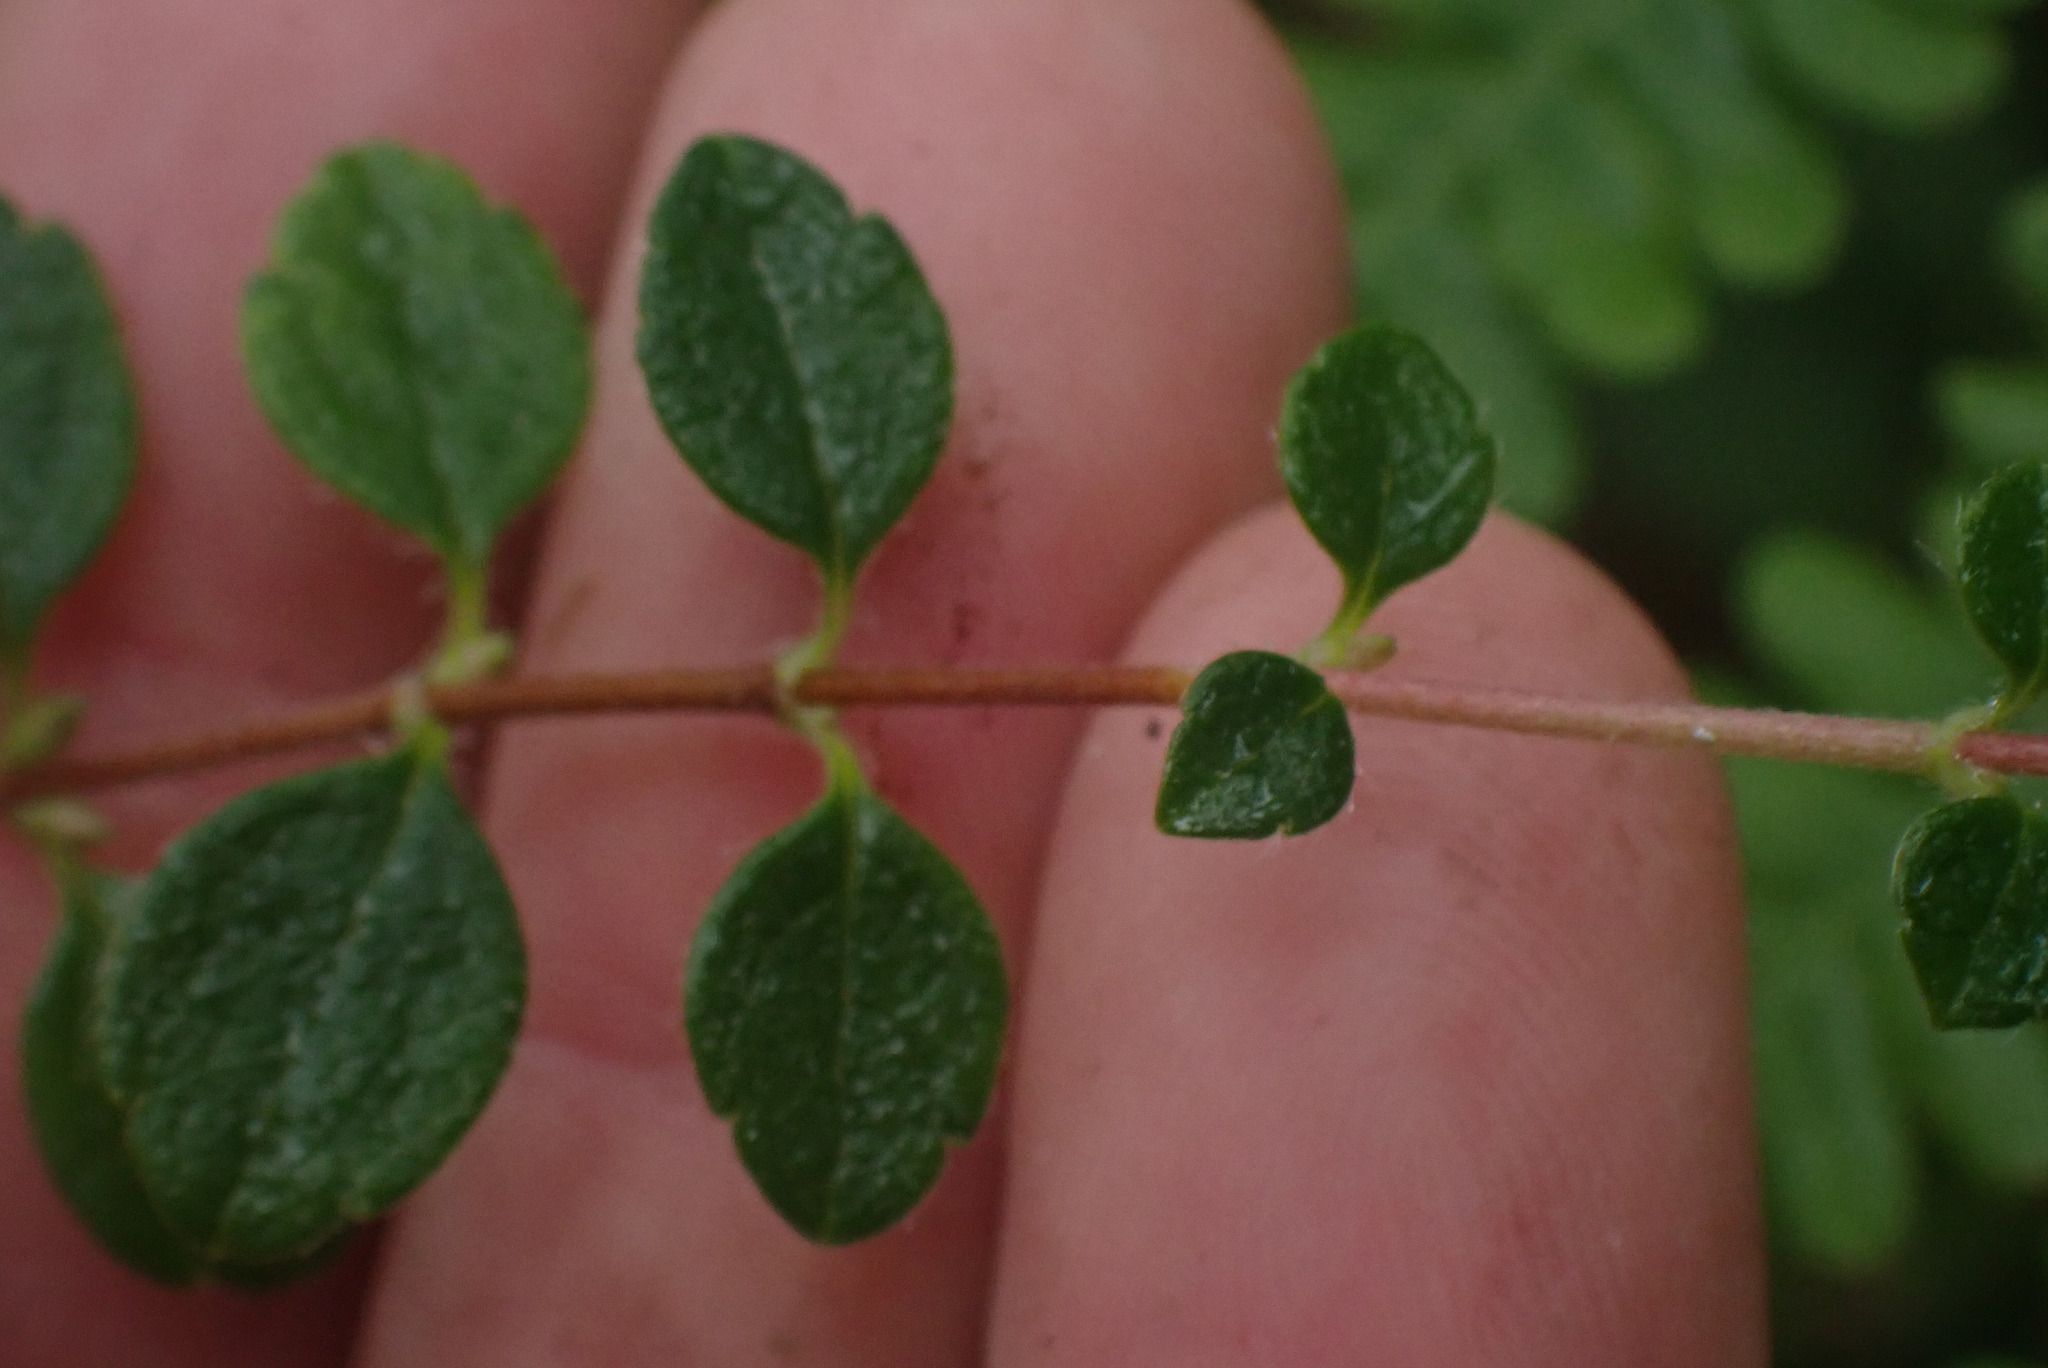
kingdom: Plantae
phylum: Tracheophyta
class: Magnoliopsida
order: Dipsacales
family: Caprifoliaceae
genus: Linnaea
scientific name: Linnaea borealis
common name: Twinflower
